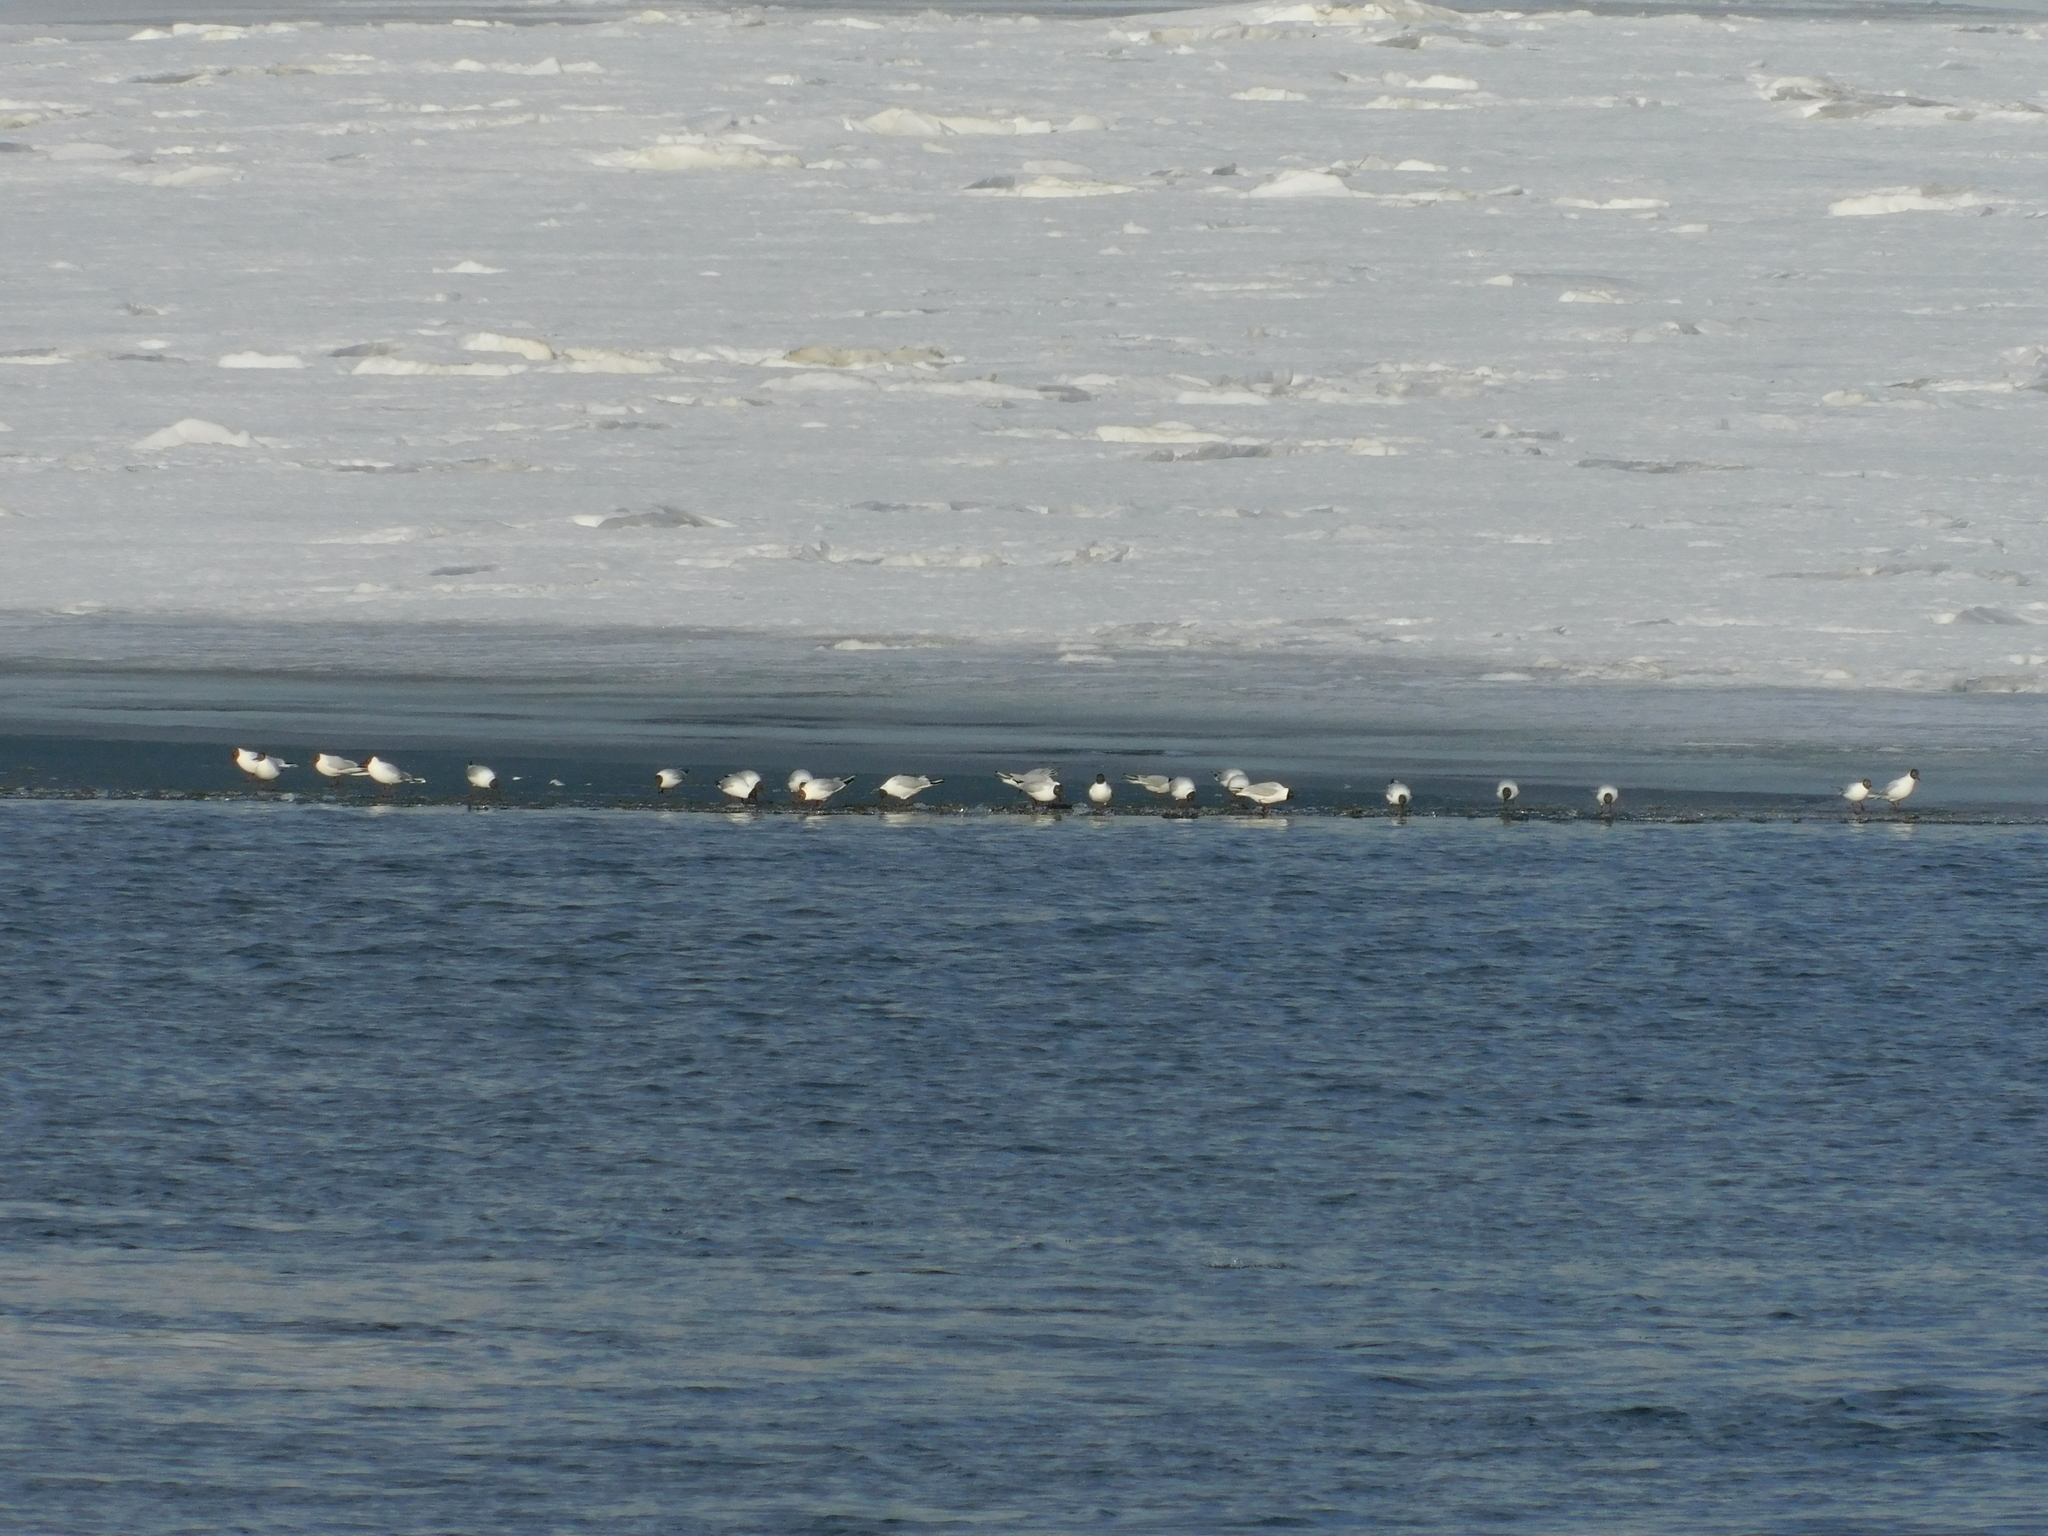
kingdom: Animalia
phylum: Chordata
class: Aves
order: Charadriiformes
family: Laridae
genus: Chroicocephalus
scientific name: Chroicocephalus ridibundus
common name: Black-headed gull
